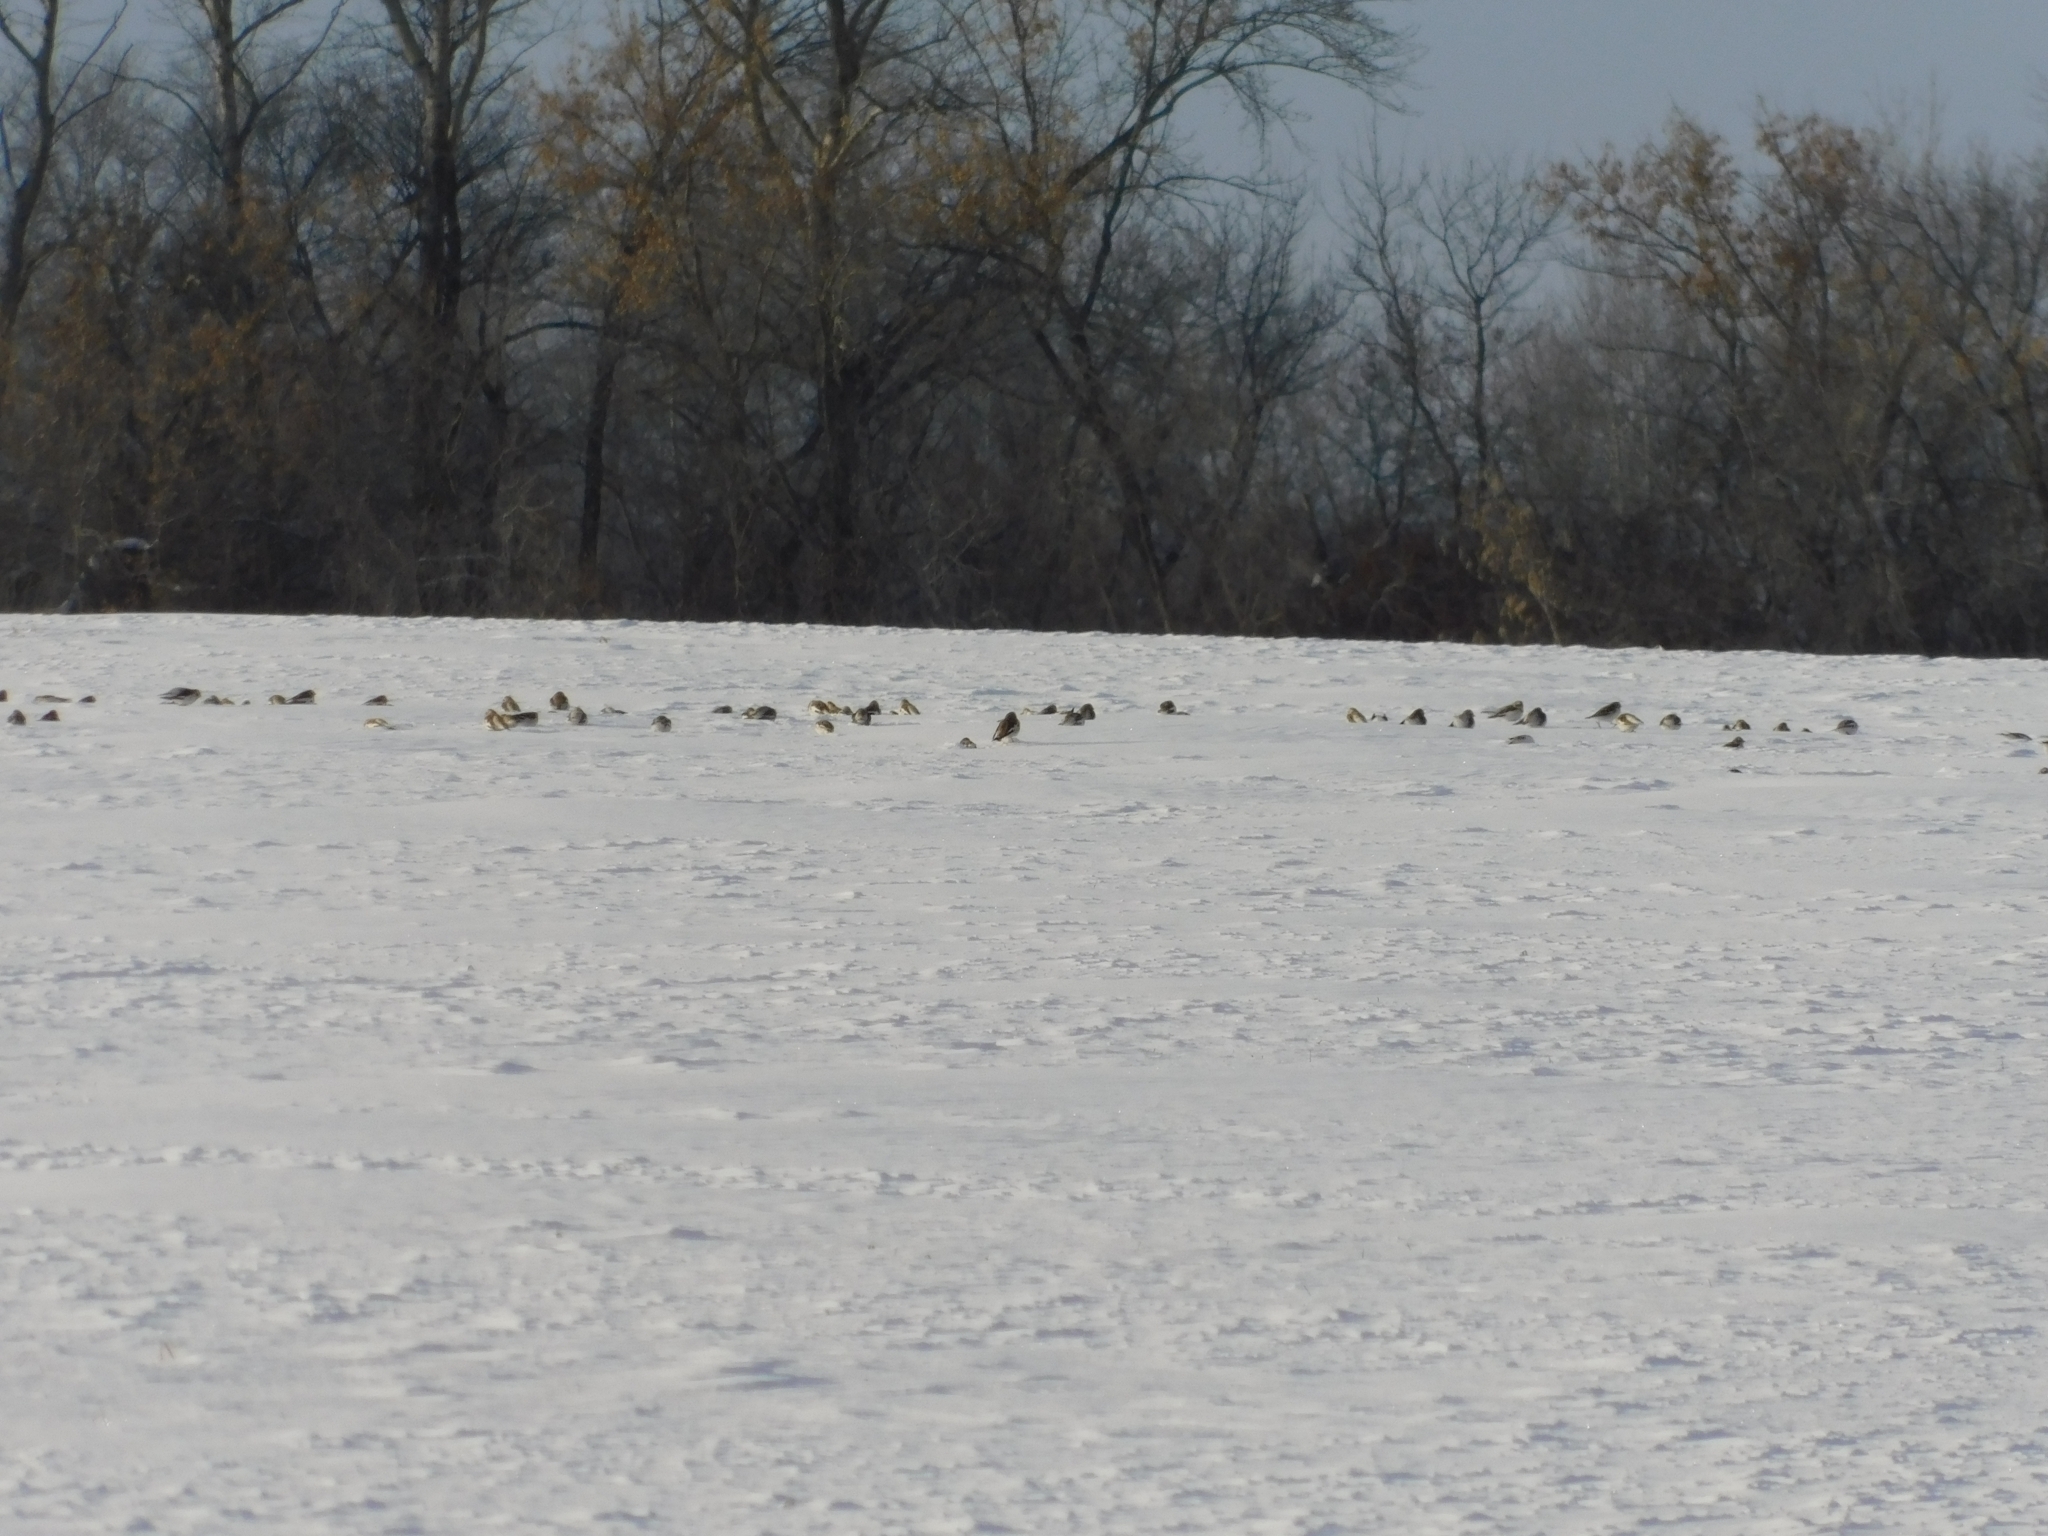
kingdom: Animalia
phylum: Chordata
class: Aves
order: Passeriformes
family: Calcariidae
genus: Plectrophenax
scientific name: Plectrophenax nivalis
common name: Snow bunting
